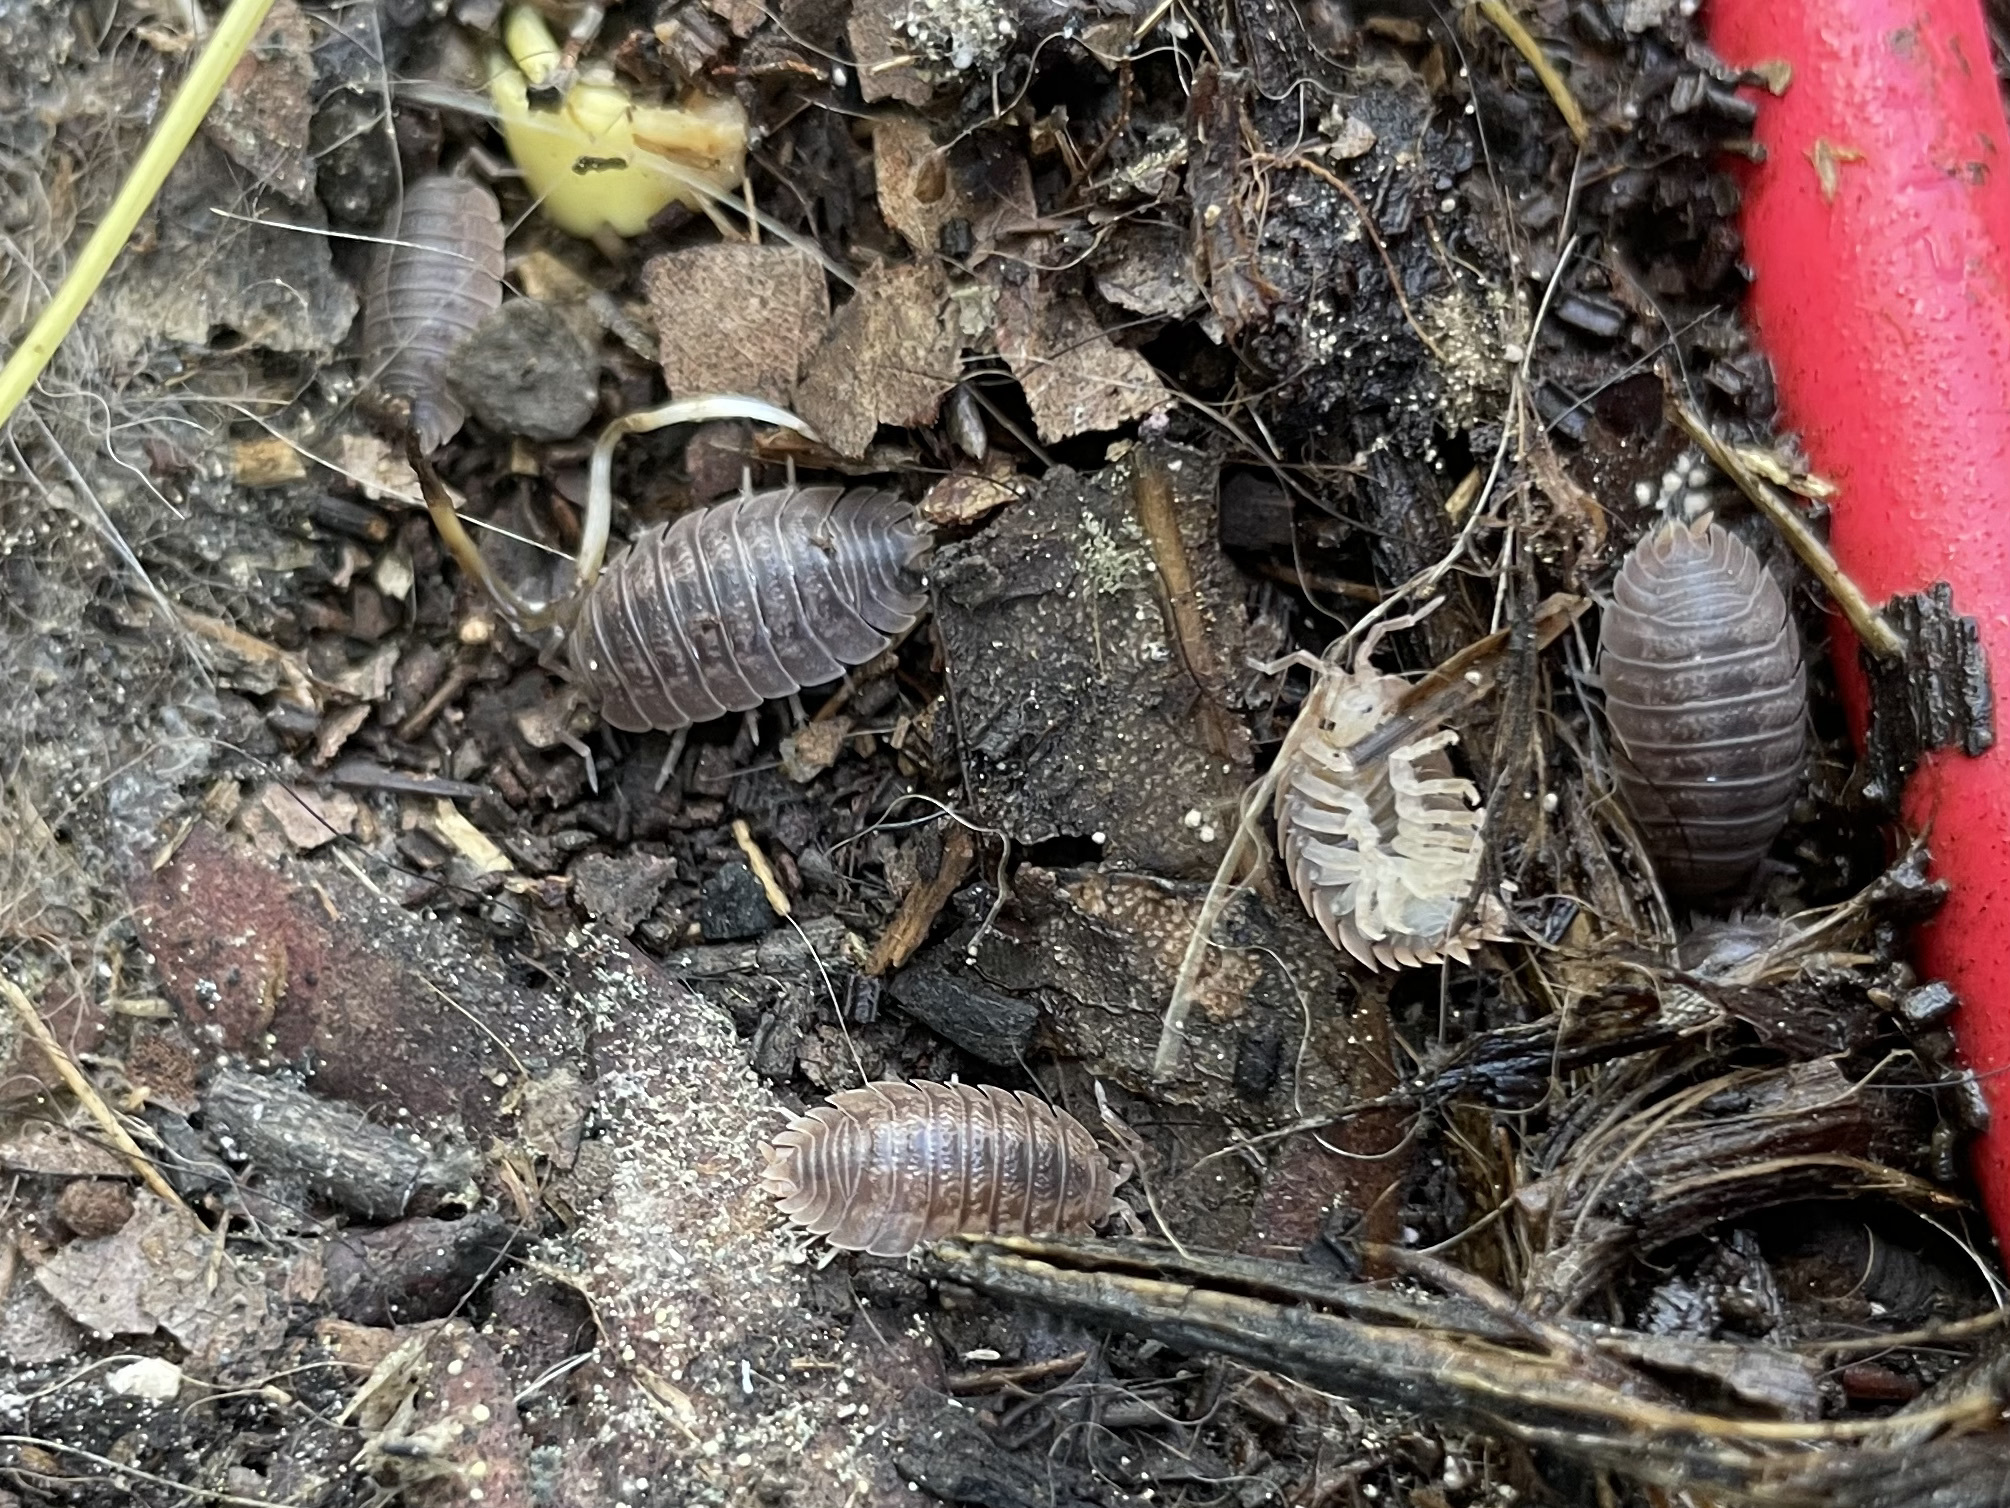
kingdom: Animalia
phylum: Arthropoda
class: Malacostraca
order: Isopoda
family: Porcellionidae
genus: Porcellio
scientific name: Porcellio dilatatus
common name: Isopod
